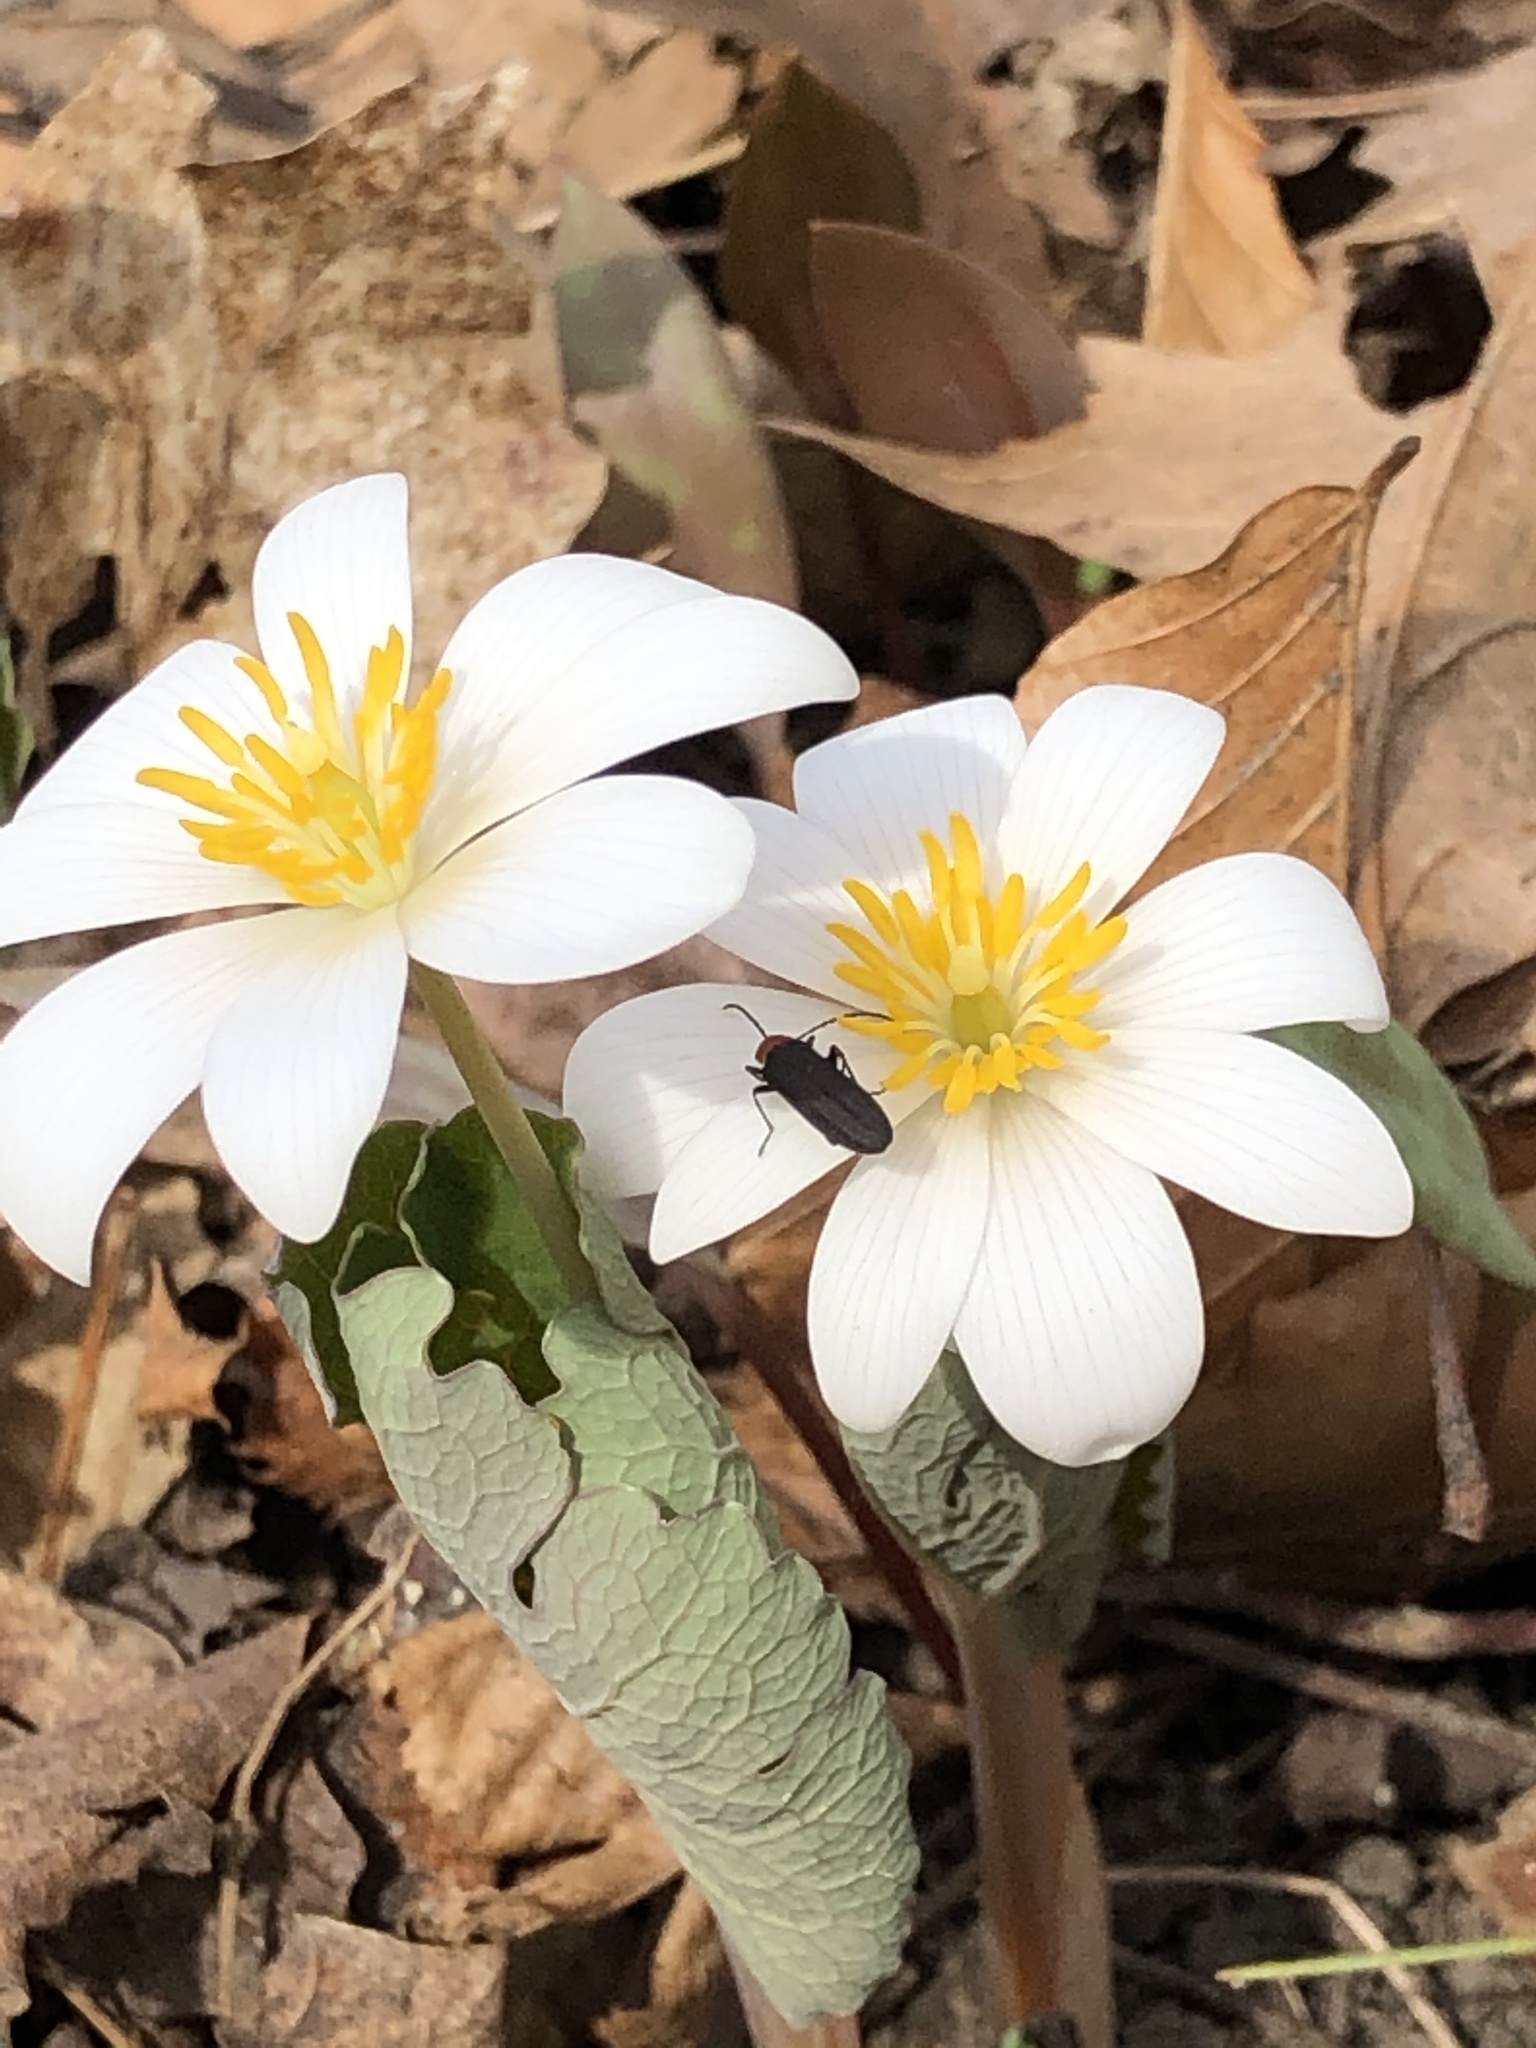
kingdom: Plantae
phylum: Tracheophyta
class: Magnoliopsida
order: Ranunculales
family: Papaveraceae
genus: Sanguinaria
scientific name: Sanguinaria canadensis
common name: Bloodroot
